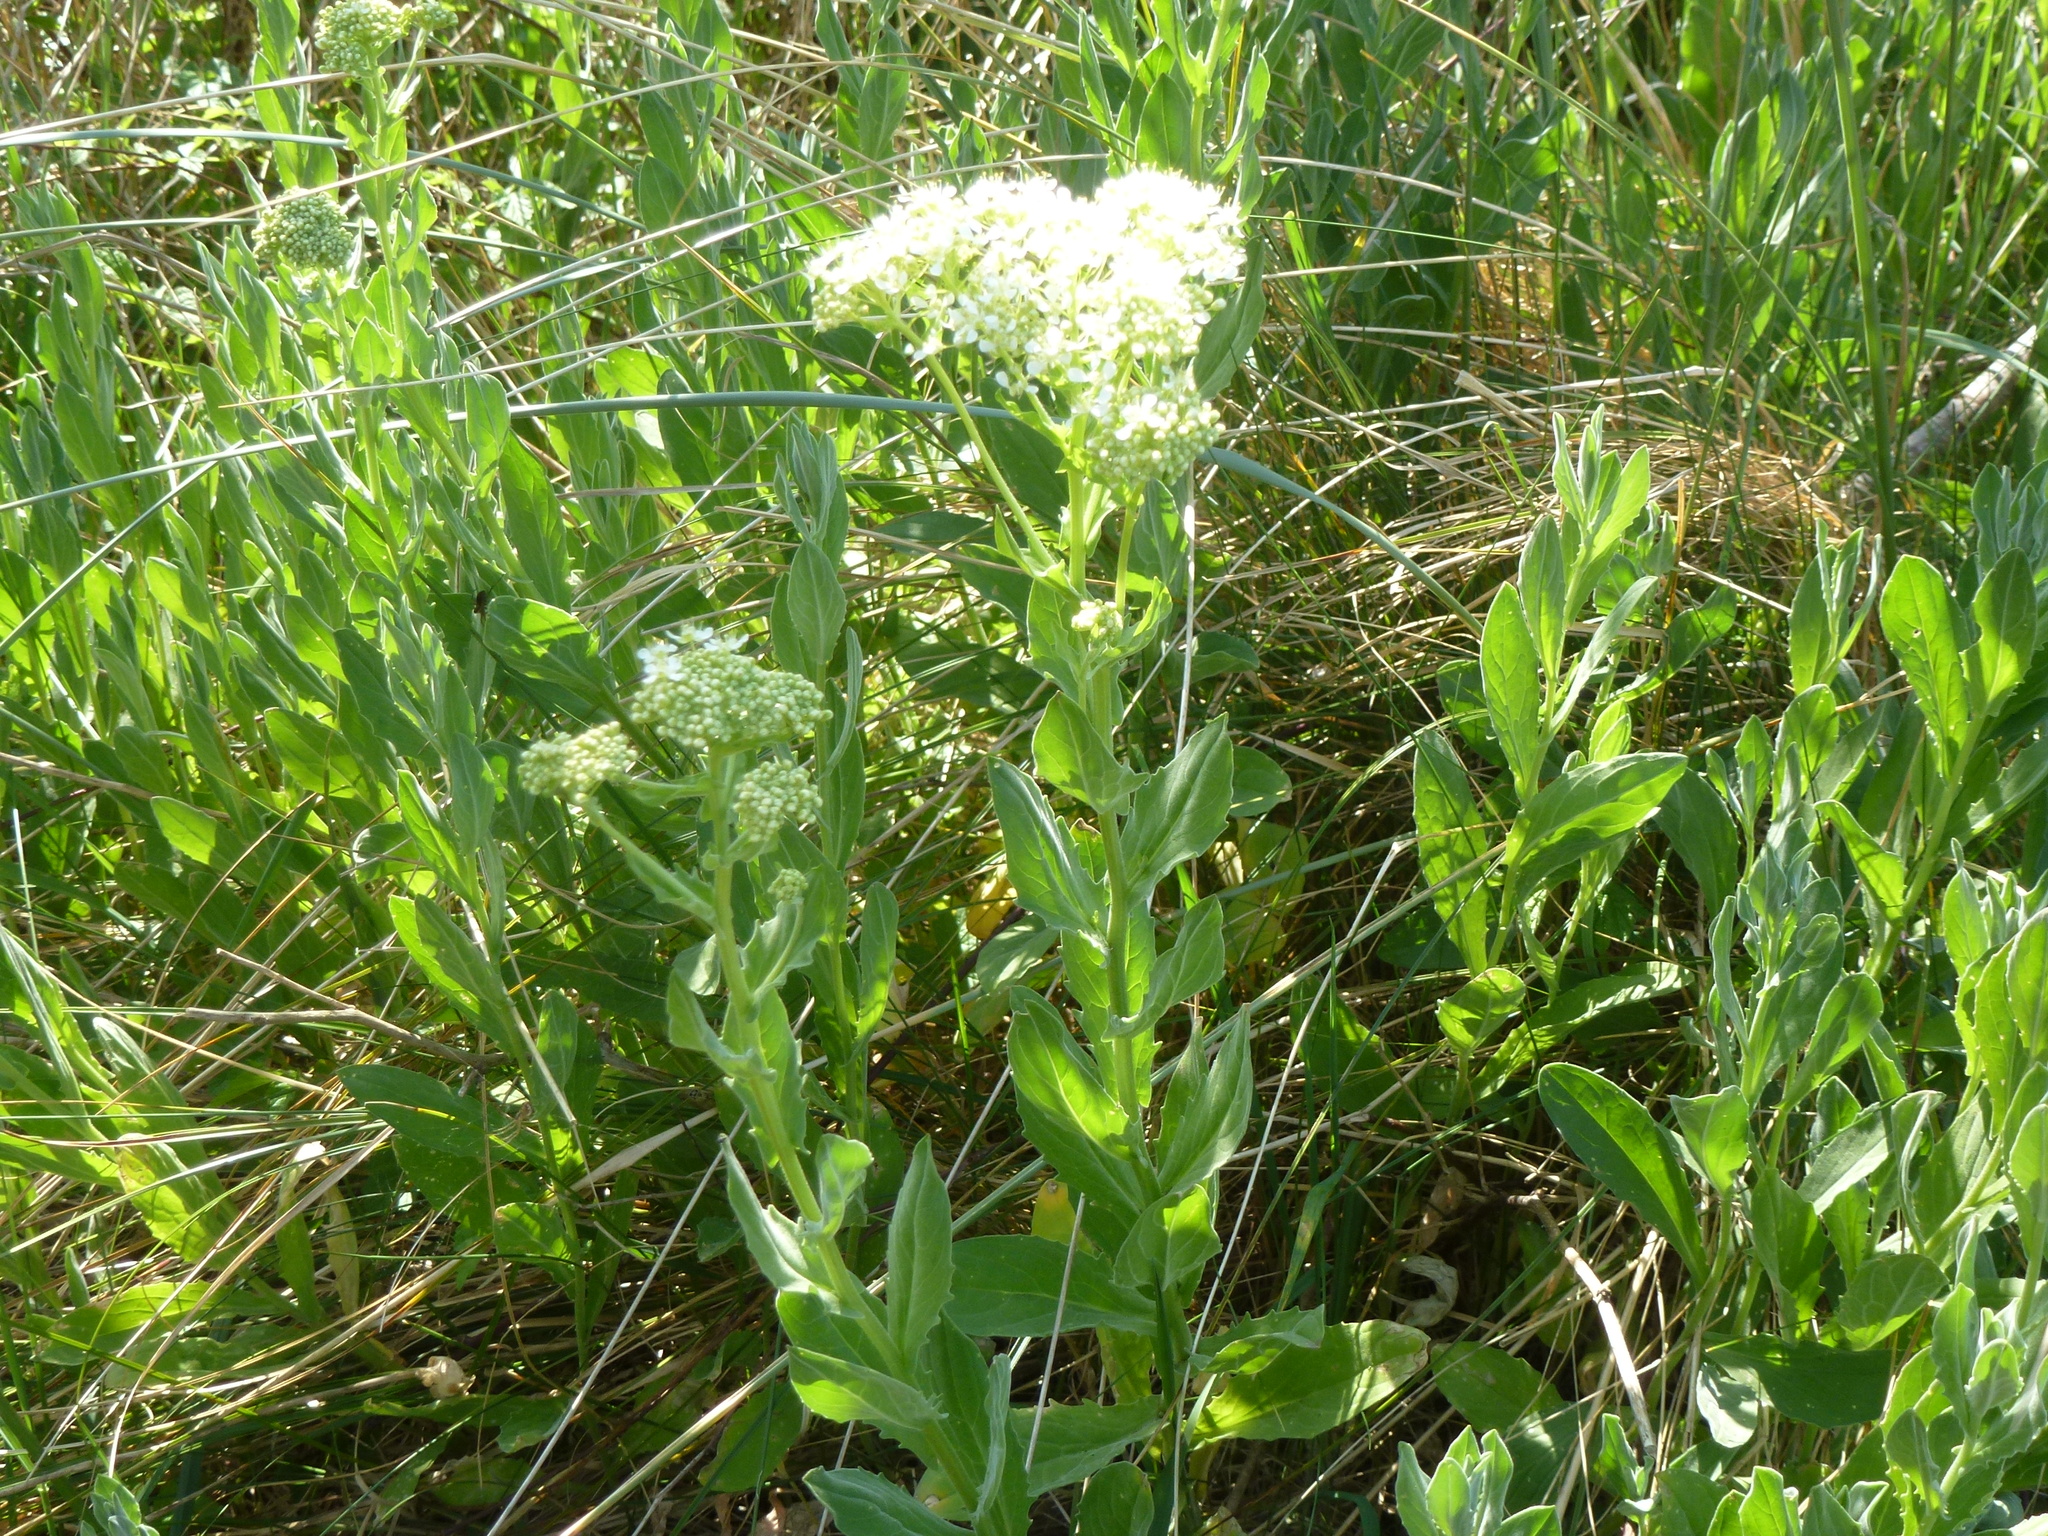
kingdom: Plantae
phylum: Tracheophyta
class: Magnoliopsida
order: Brassicales
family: Brassicaceae
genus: Lepidium
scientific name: Lepidium draba
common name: Hoary cress
